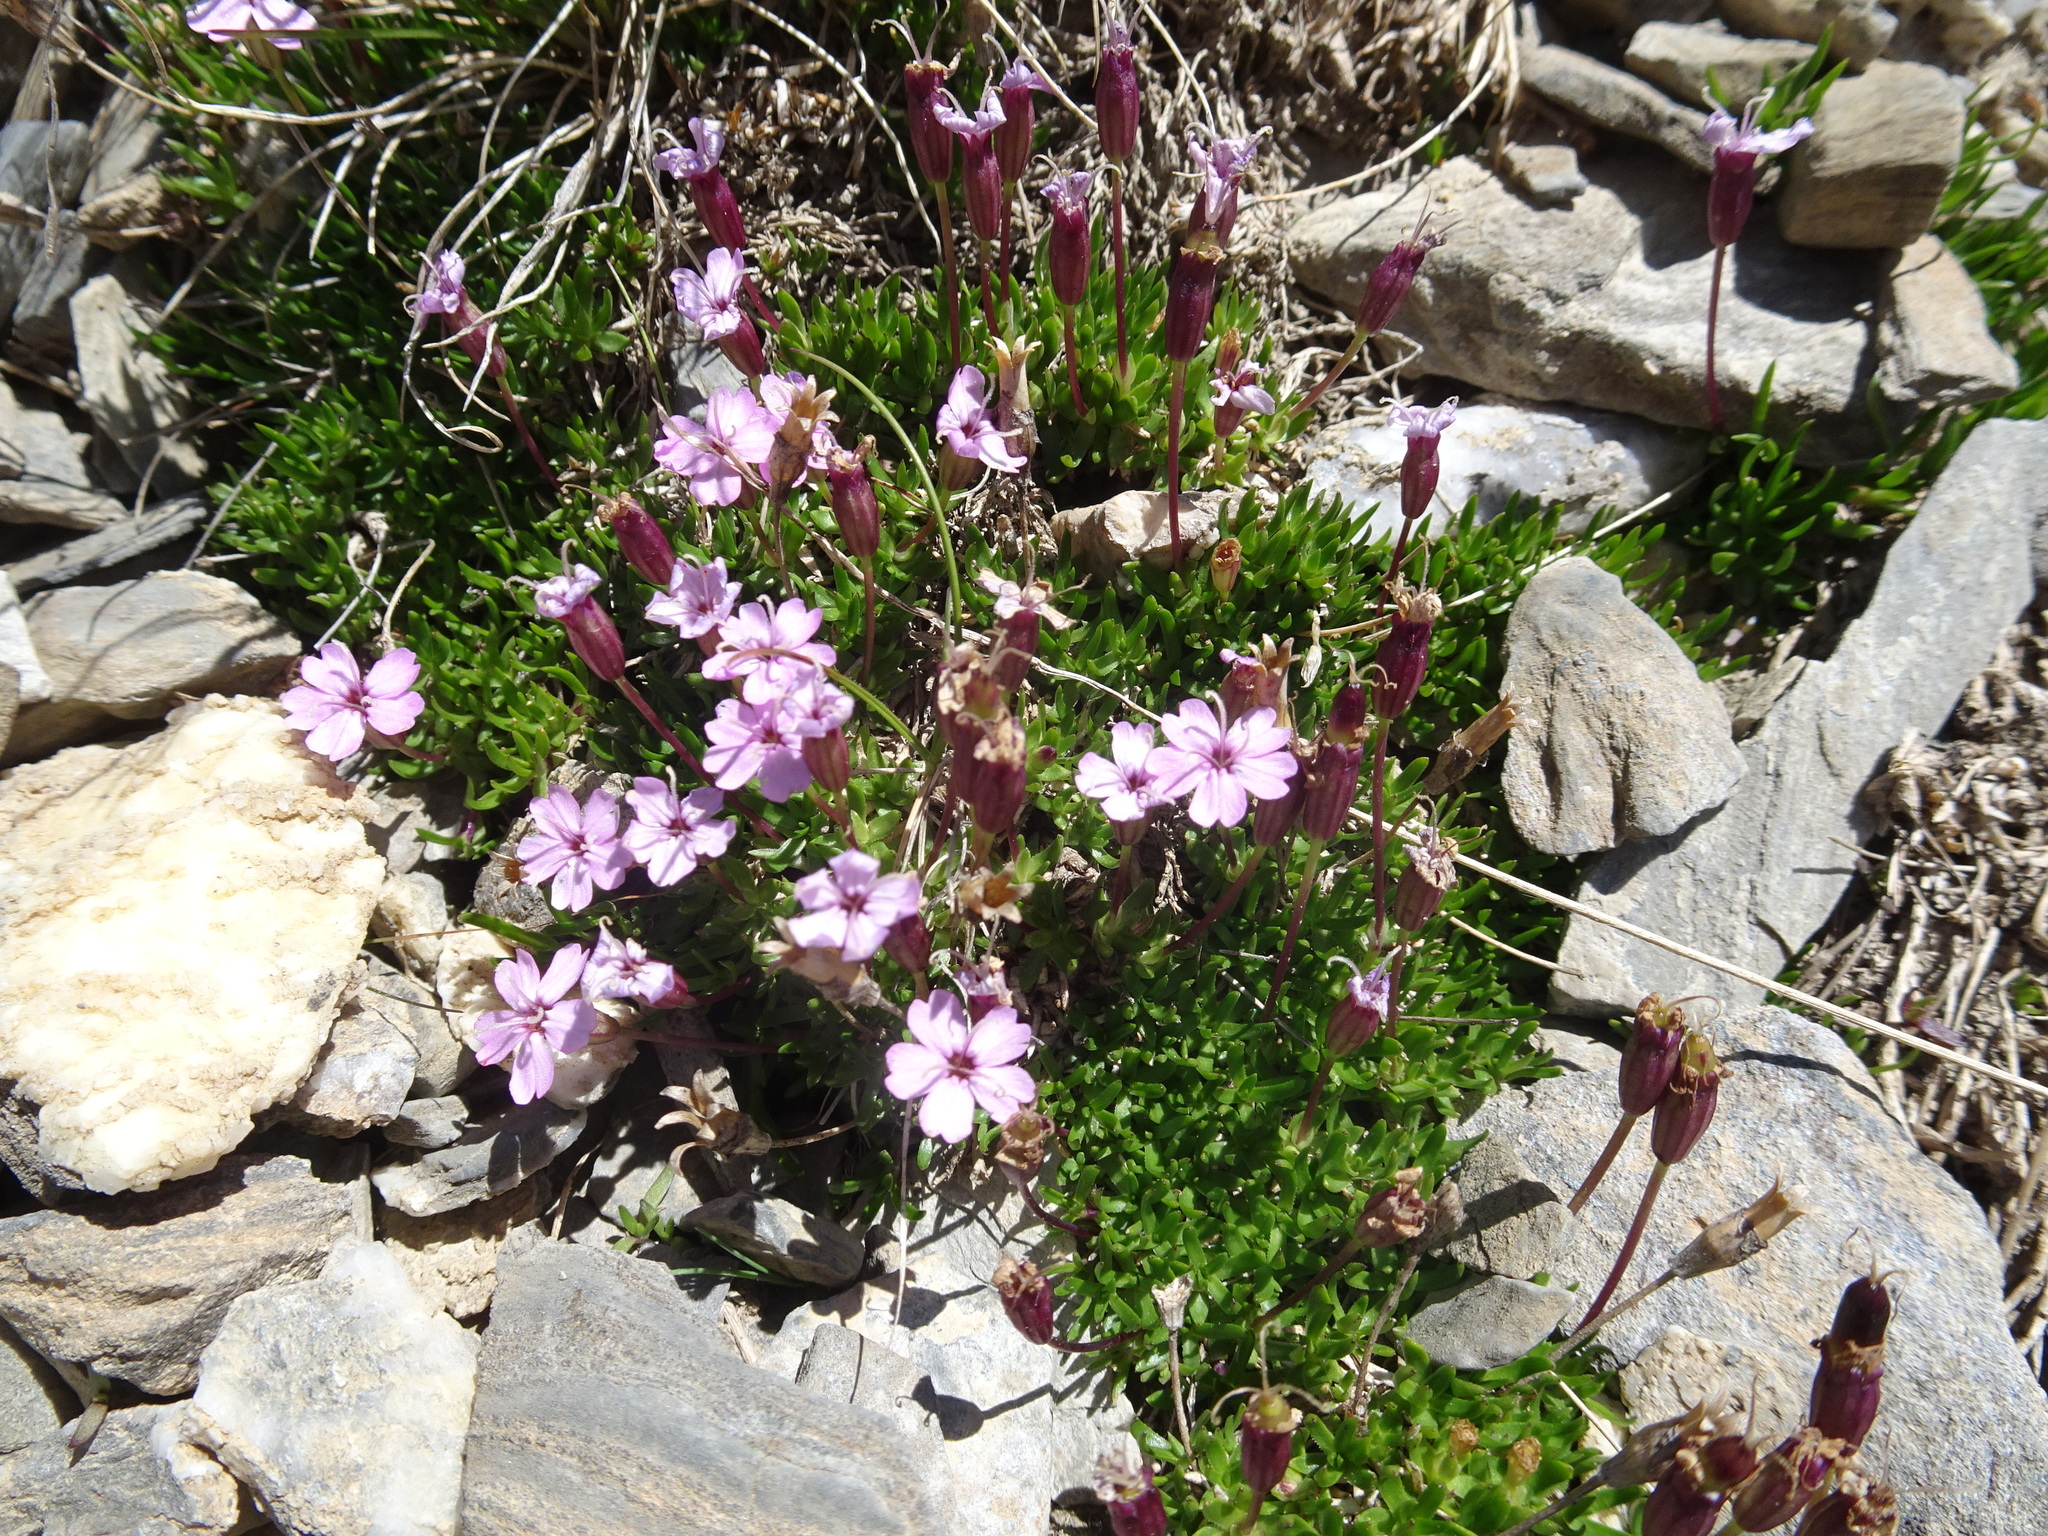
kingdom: Plantae
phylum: Tracheophyta
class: Magnoliopsida
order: Caryophyllales
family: Caryophyllaceae
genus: Silene
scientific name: Silene acaulis
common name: Moss campion
